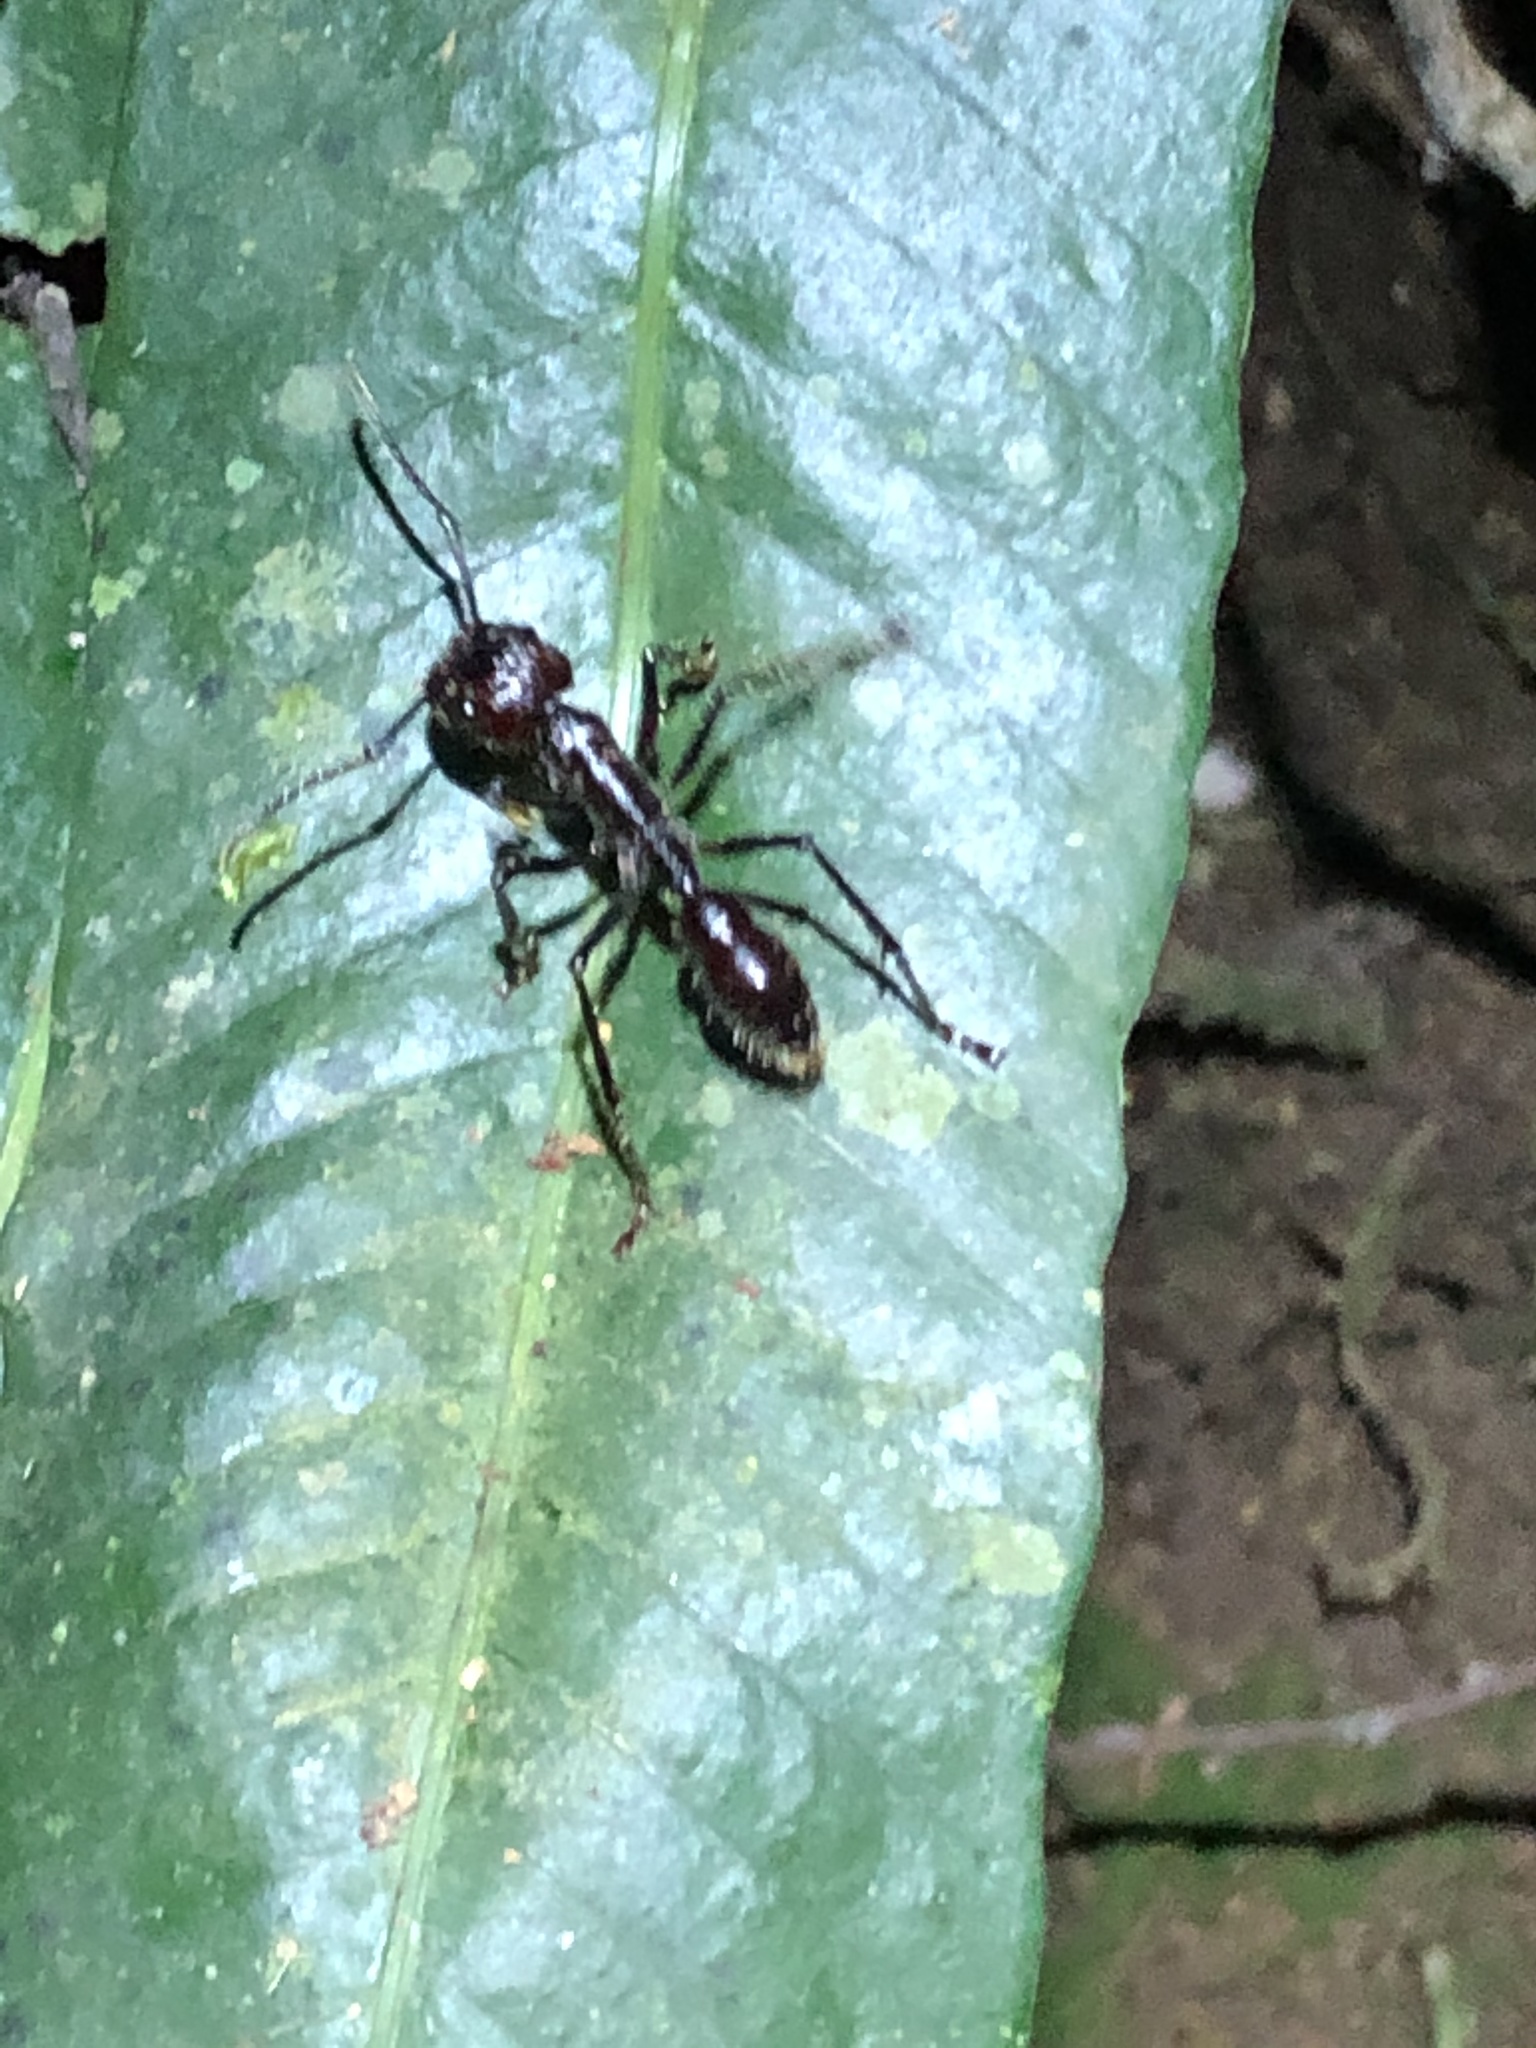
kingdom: Animalia
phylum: Arthropoda
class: Insecta
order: Hymenoptera
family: Formicidae
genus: Paraponera
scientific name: Paraponera clavata
